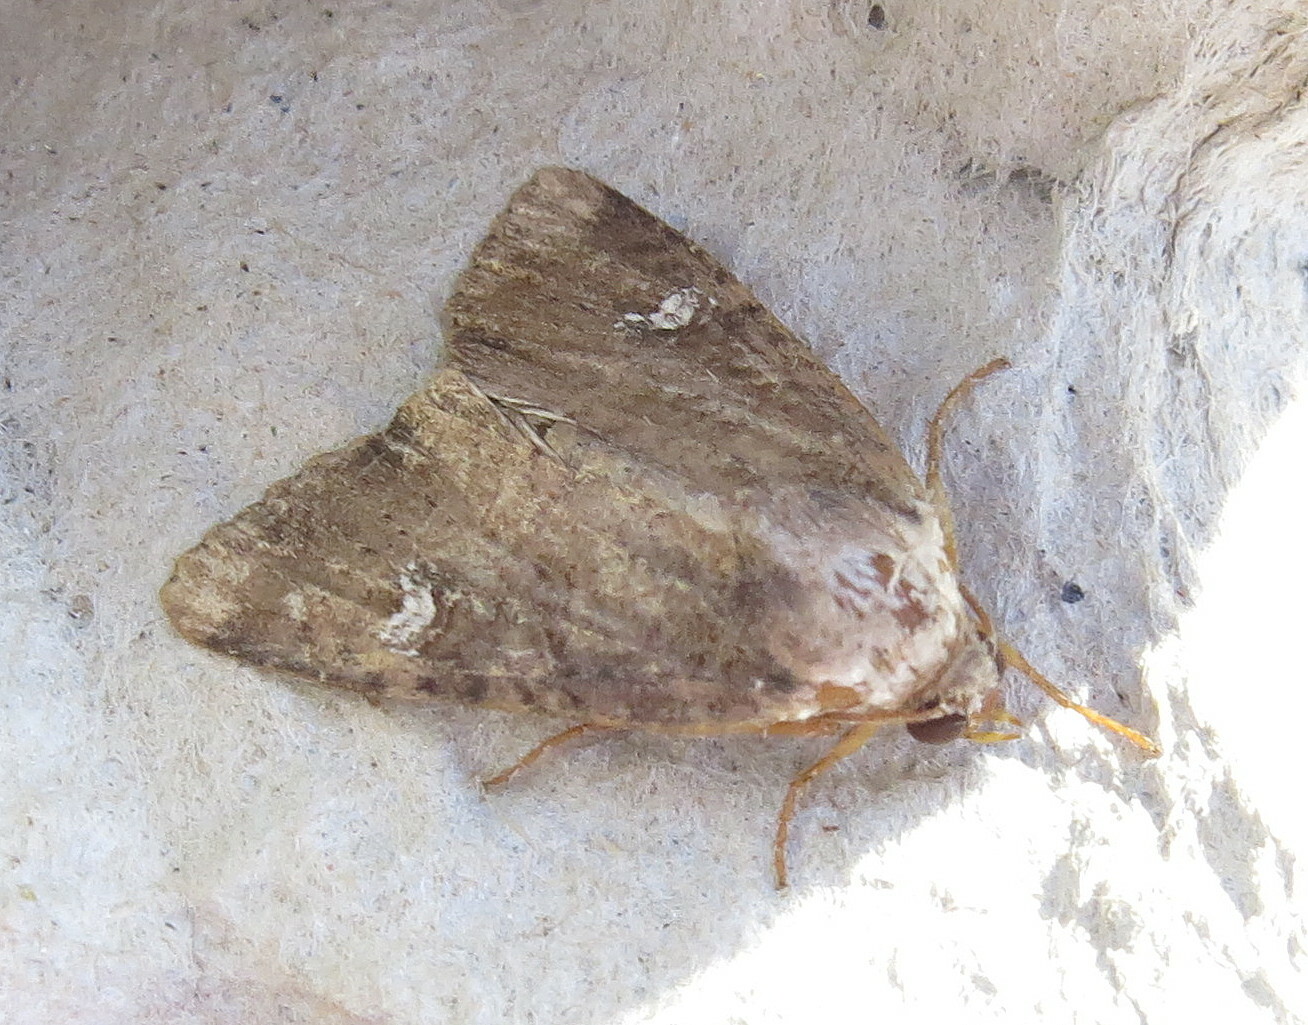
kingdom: Animalia
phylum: Arthropoda
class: Insecta
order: Lepidoptera
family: Noctuidae
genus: Mesapamea
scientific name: Mesapamea
